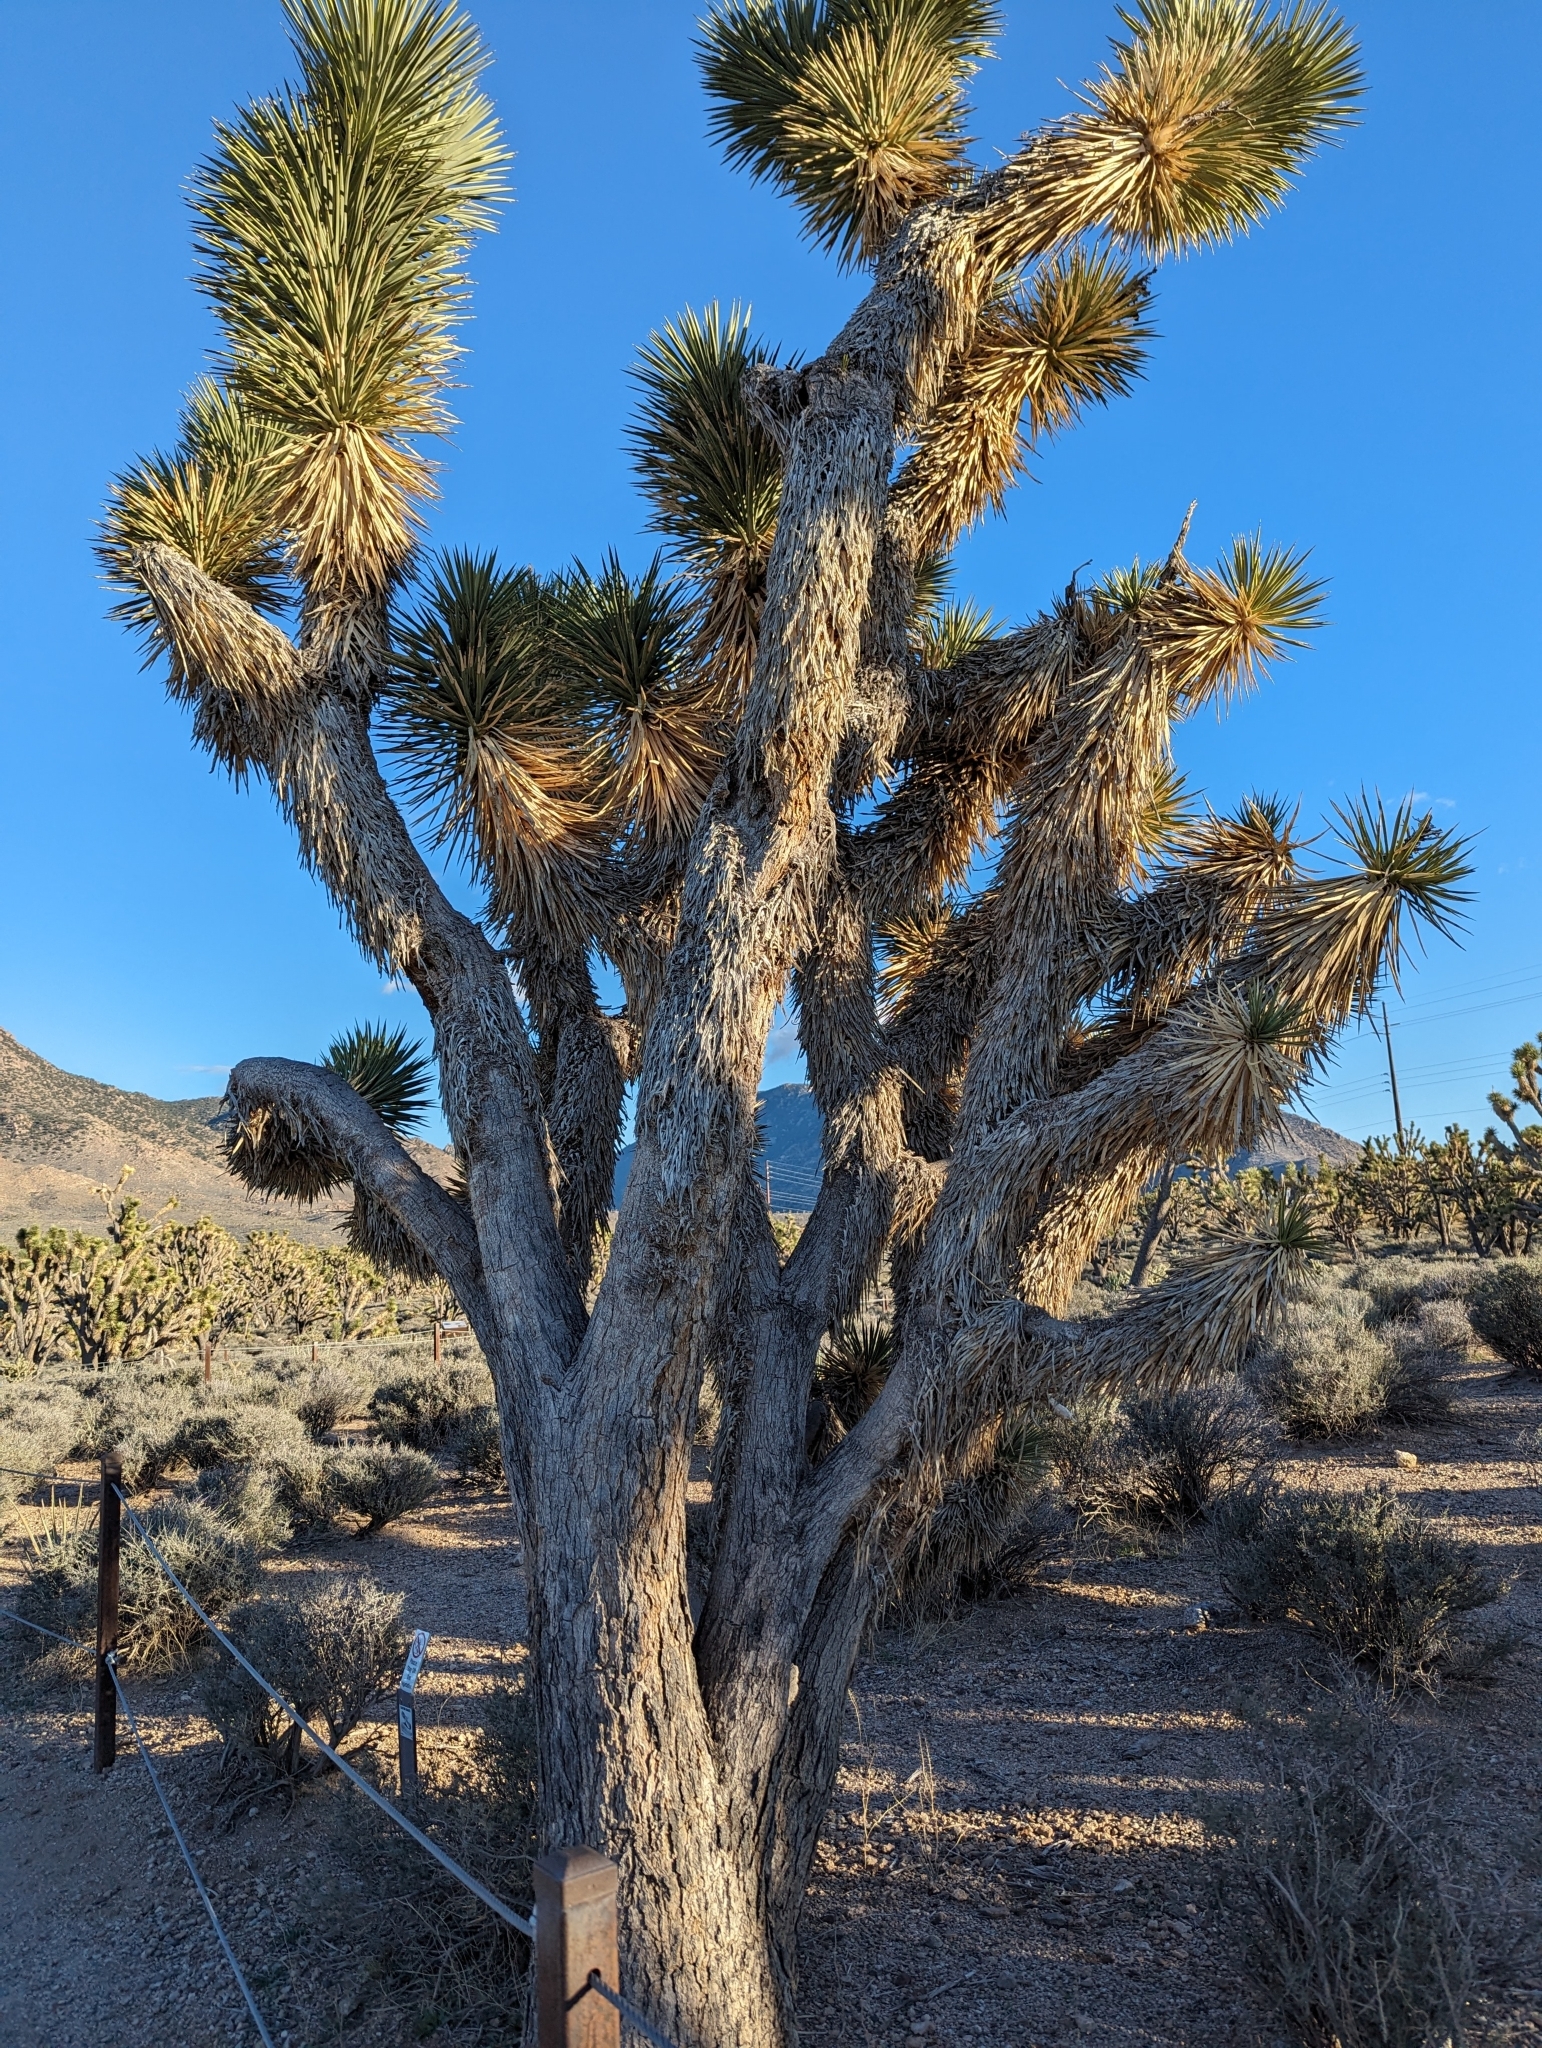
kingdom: Plantae
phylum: Tracheophyta
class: Liliopsida
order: Asparagales
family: Asparagaceae
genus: Yucca
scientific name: Yucca brevifolia
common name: Joshua tree
